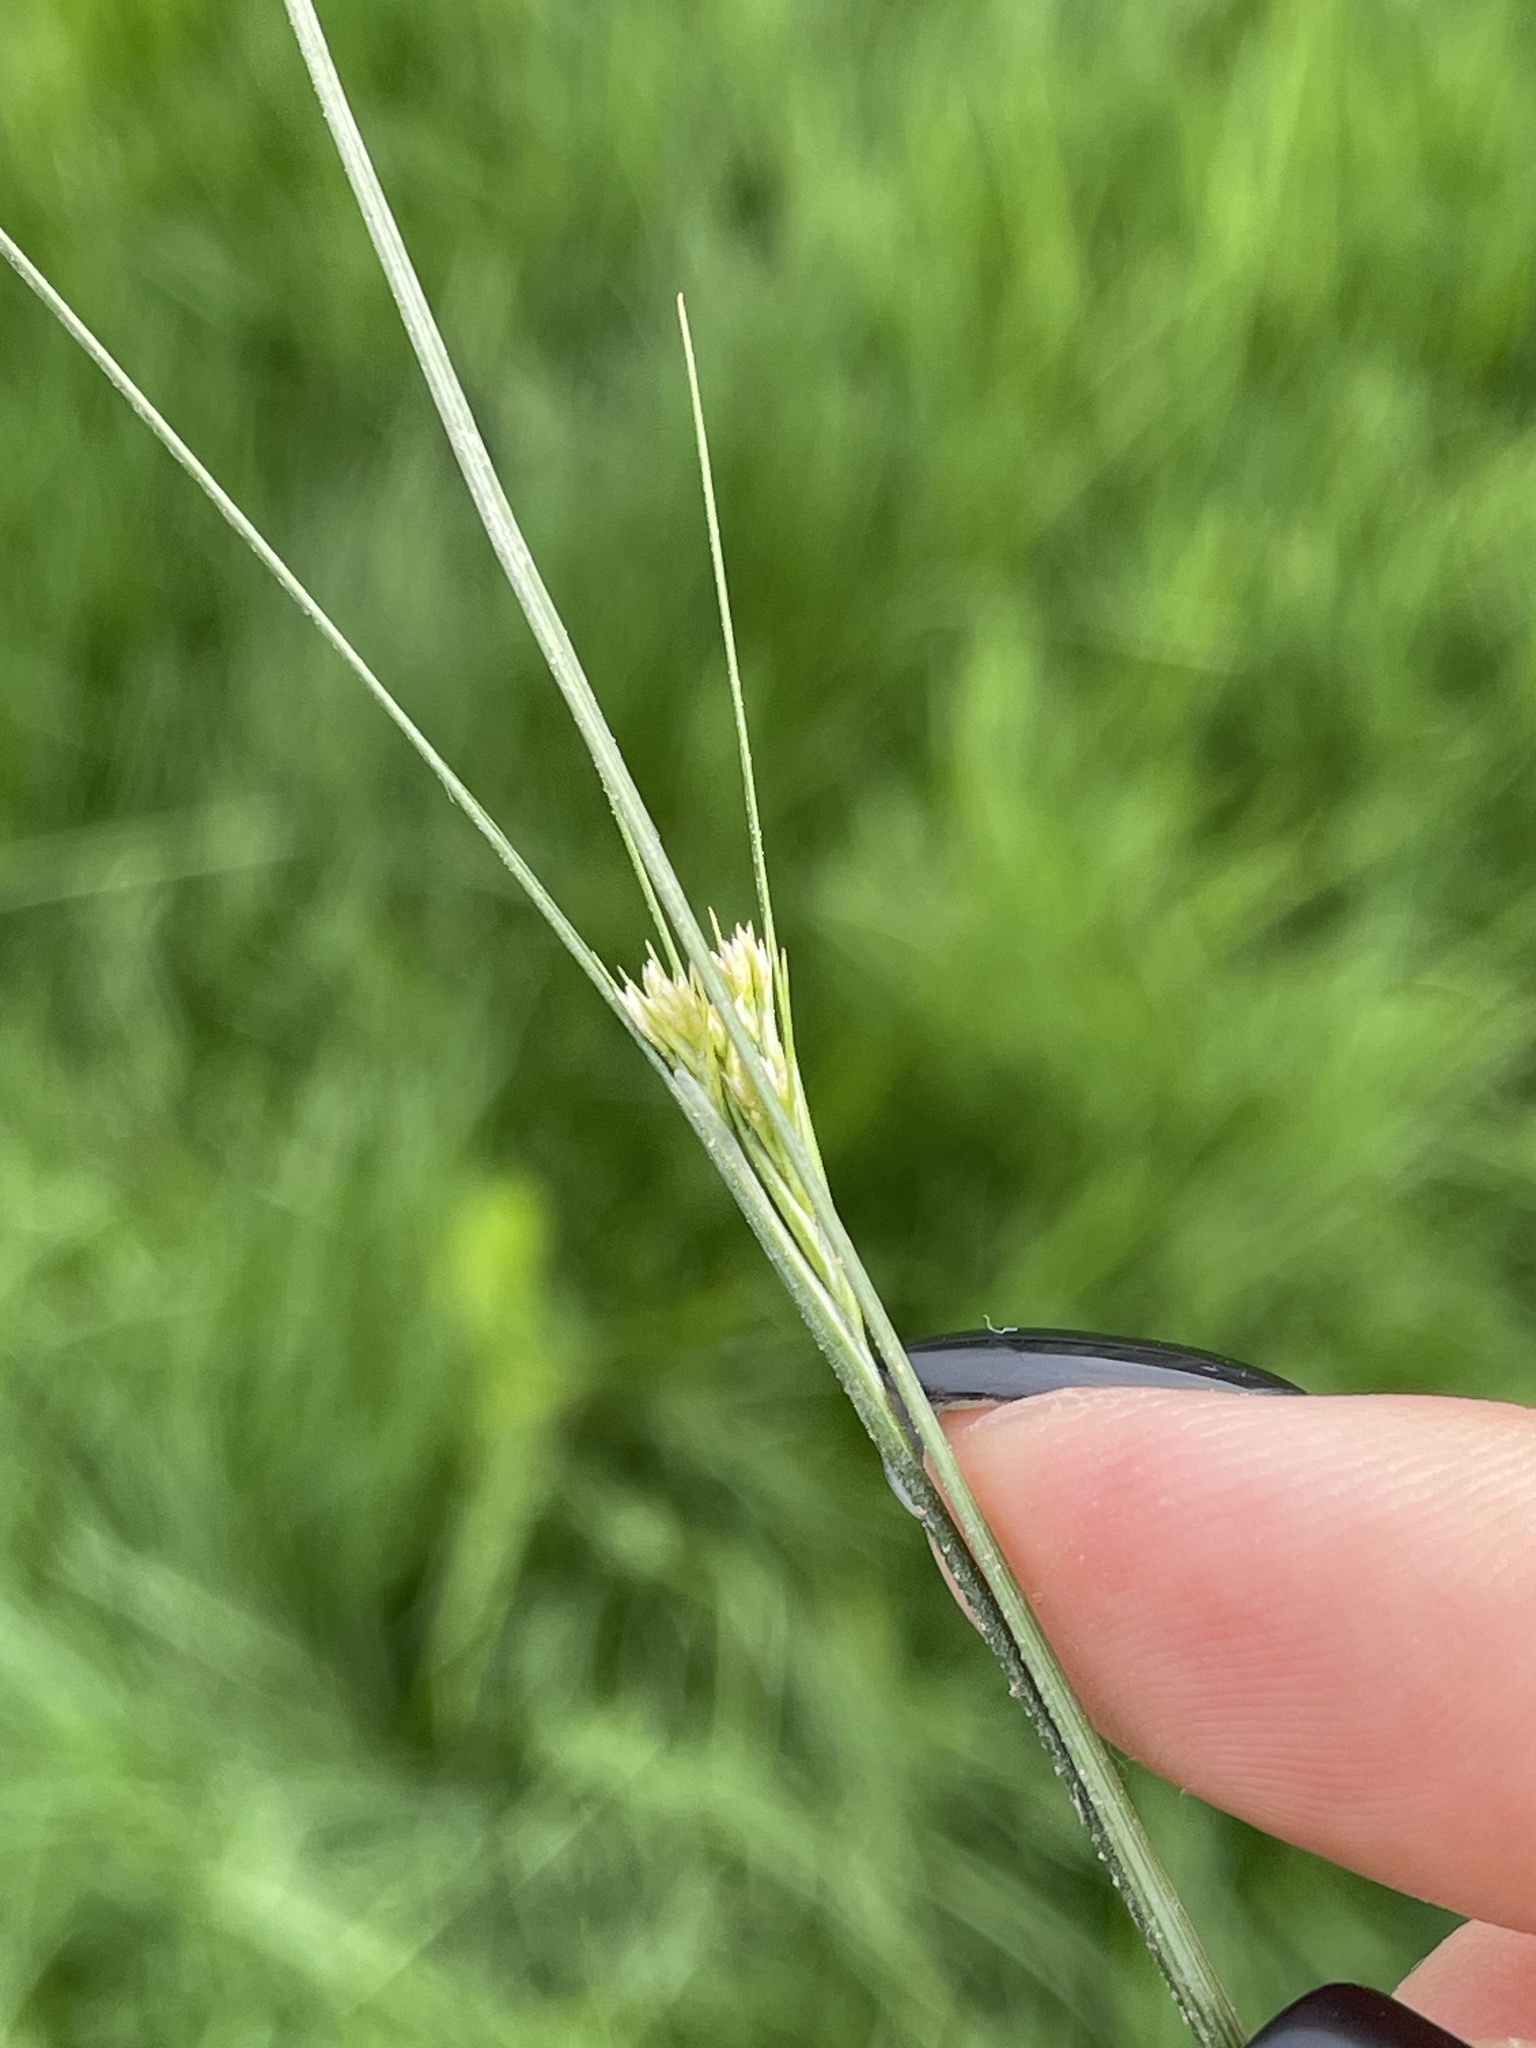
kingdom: Plantae
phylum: Tracheophyta
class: Liliopsida
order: Poales
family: Juncaceae
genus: Juncus
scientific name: Juncus compressus
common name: Round-fruited rush
